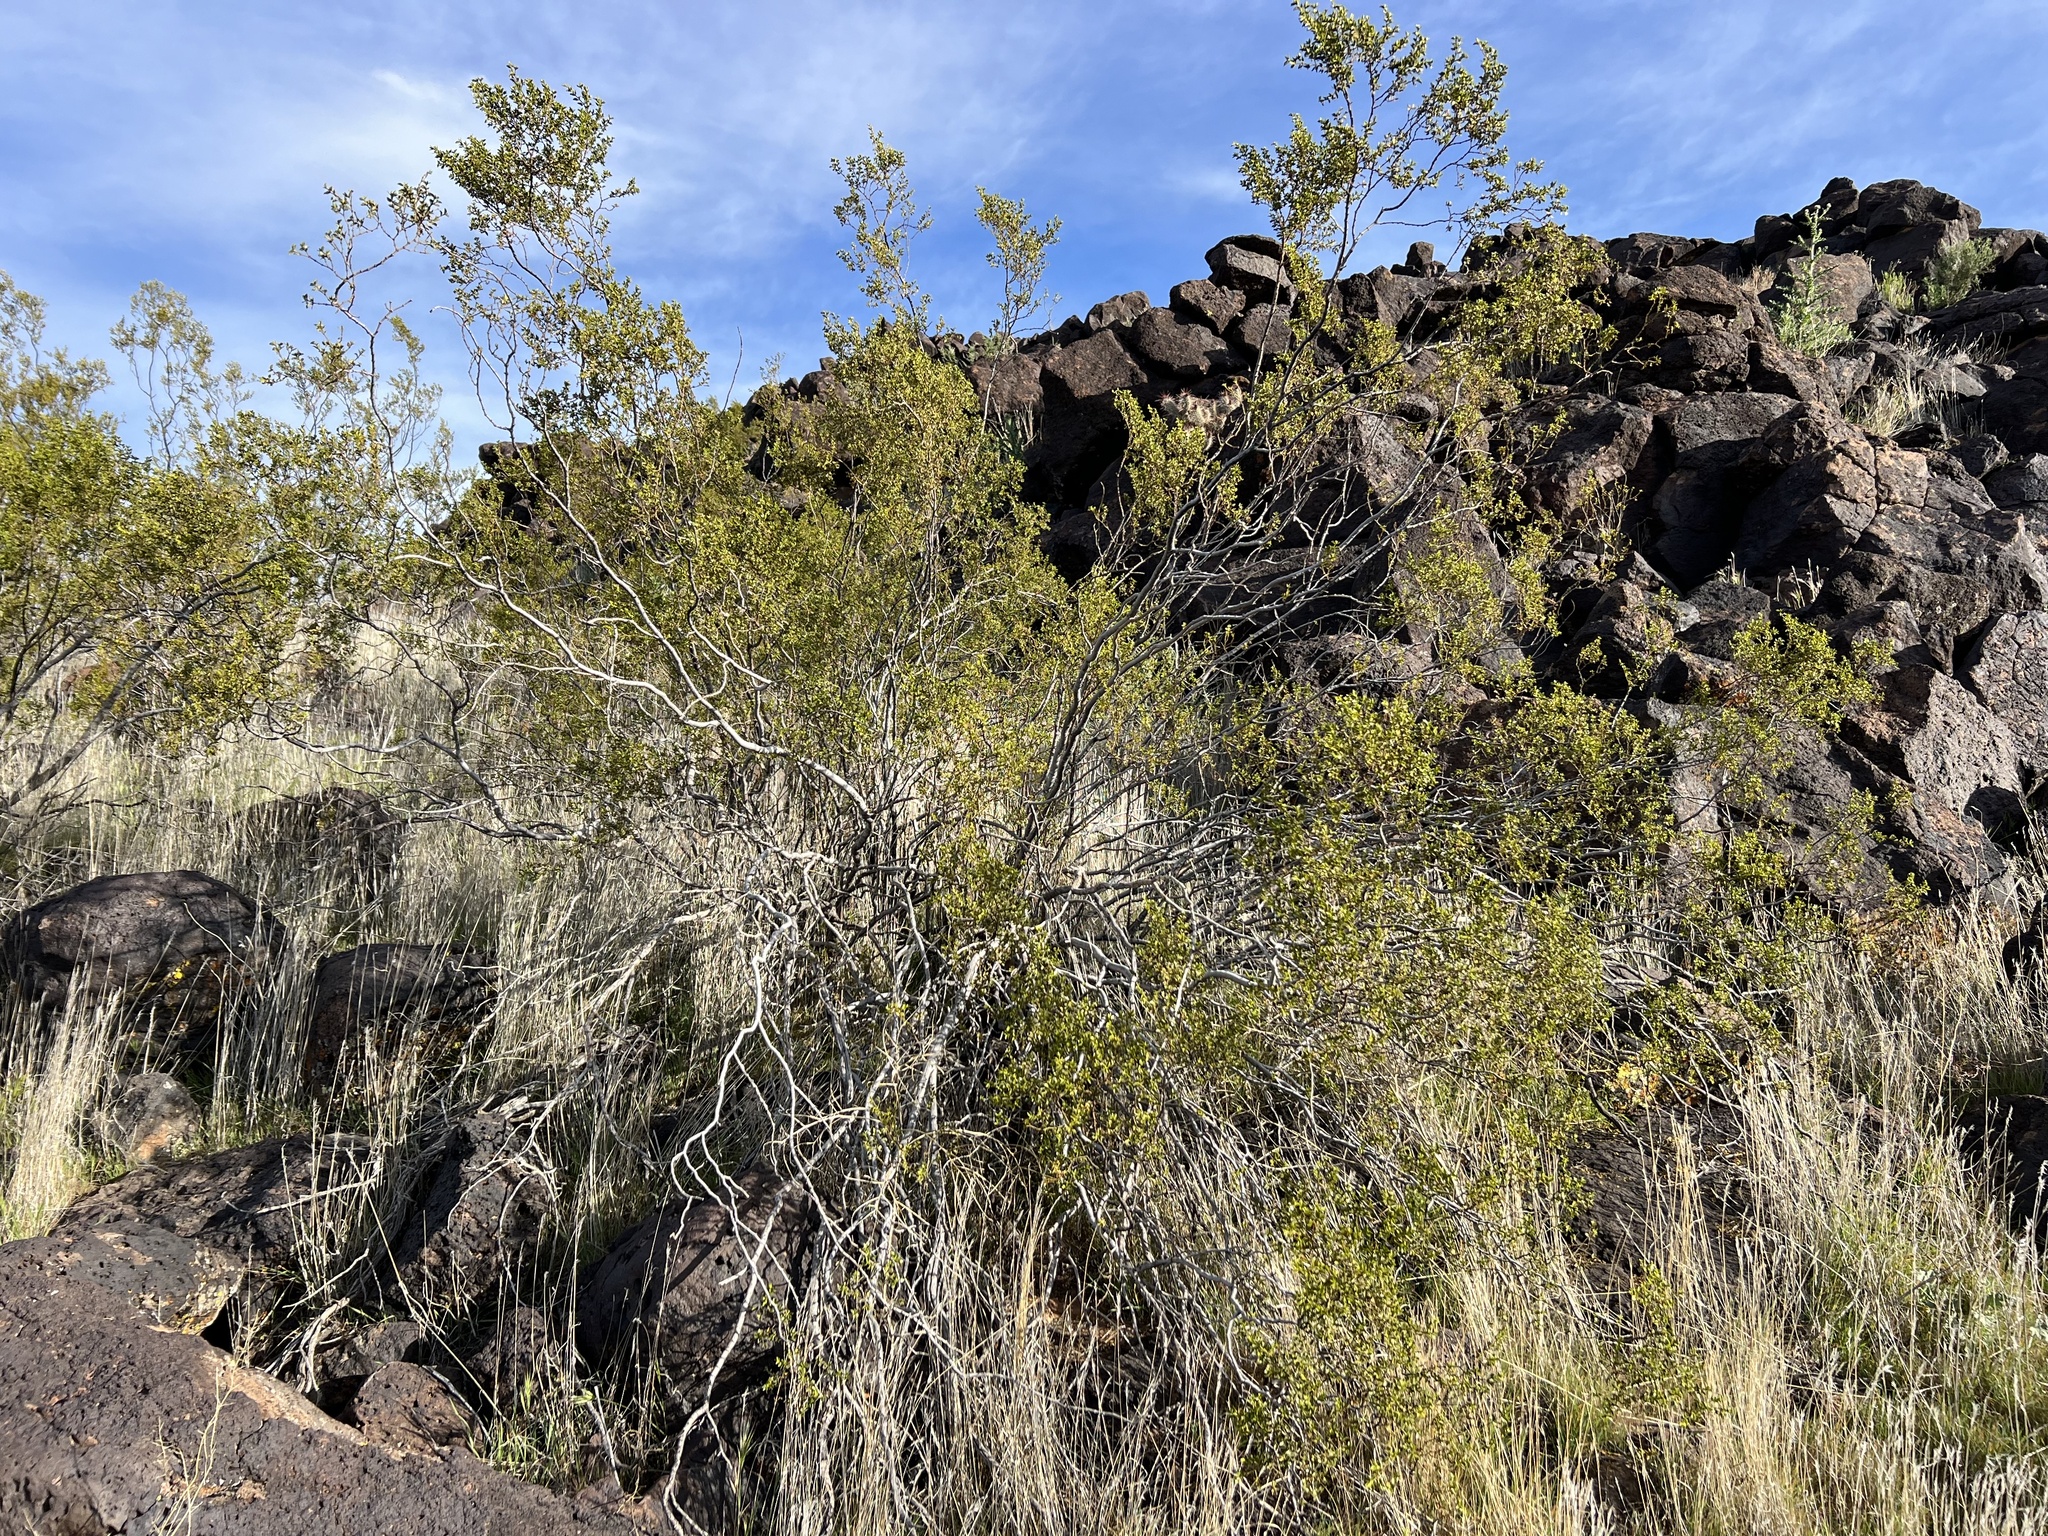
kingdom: Plantae
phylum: Tracheophyta
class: Magnoliopsida
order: Zygophyllales
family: Zygophyllaceae
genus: Larrea
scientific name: Larrea tridentata
